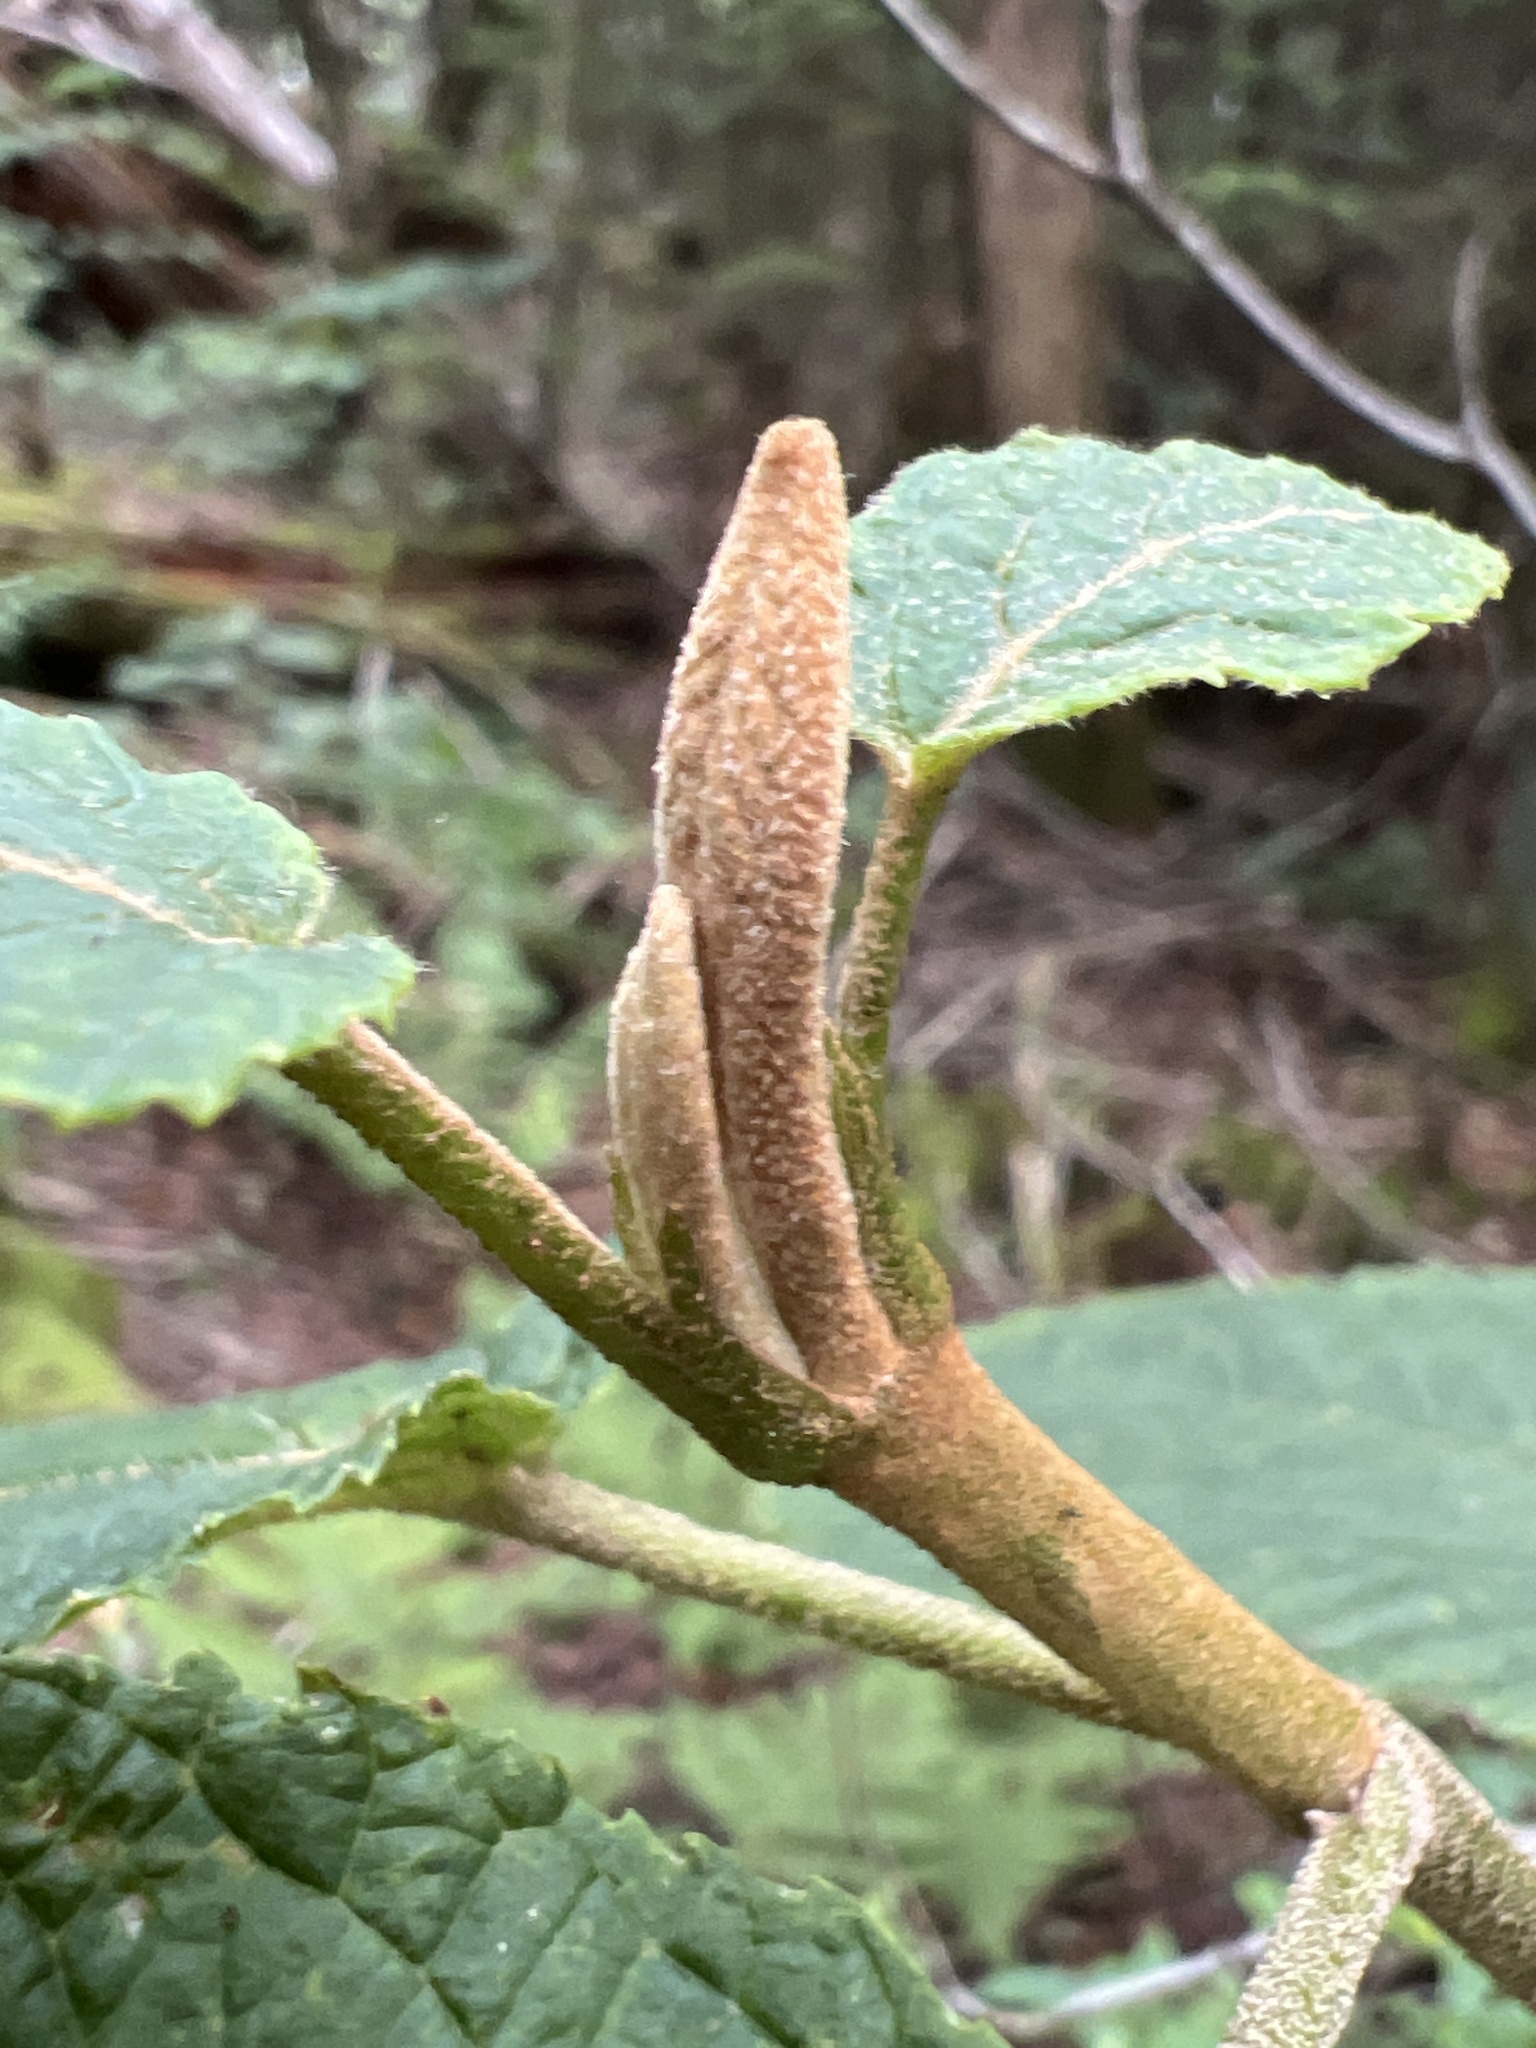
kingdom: Plantae
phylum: Tracheophyta
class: Magnoliopsida
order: Dipsacales
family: Viburnaceae
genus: Viburnum
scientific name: Viburnum lantanoides
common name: Hobblebush
